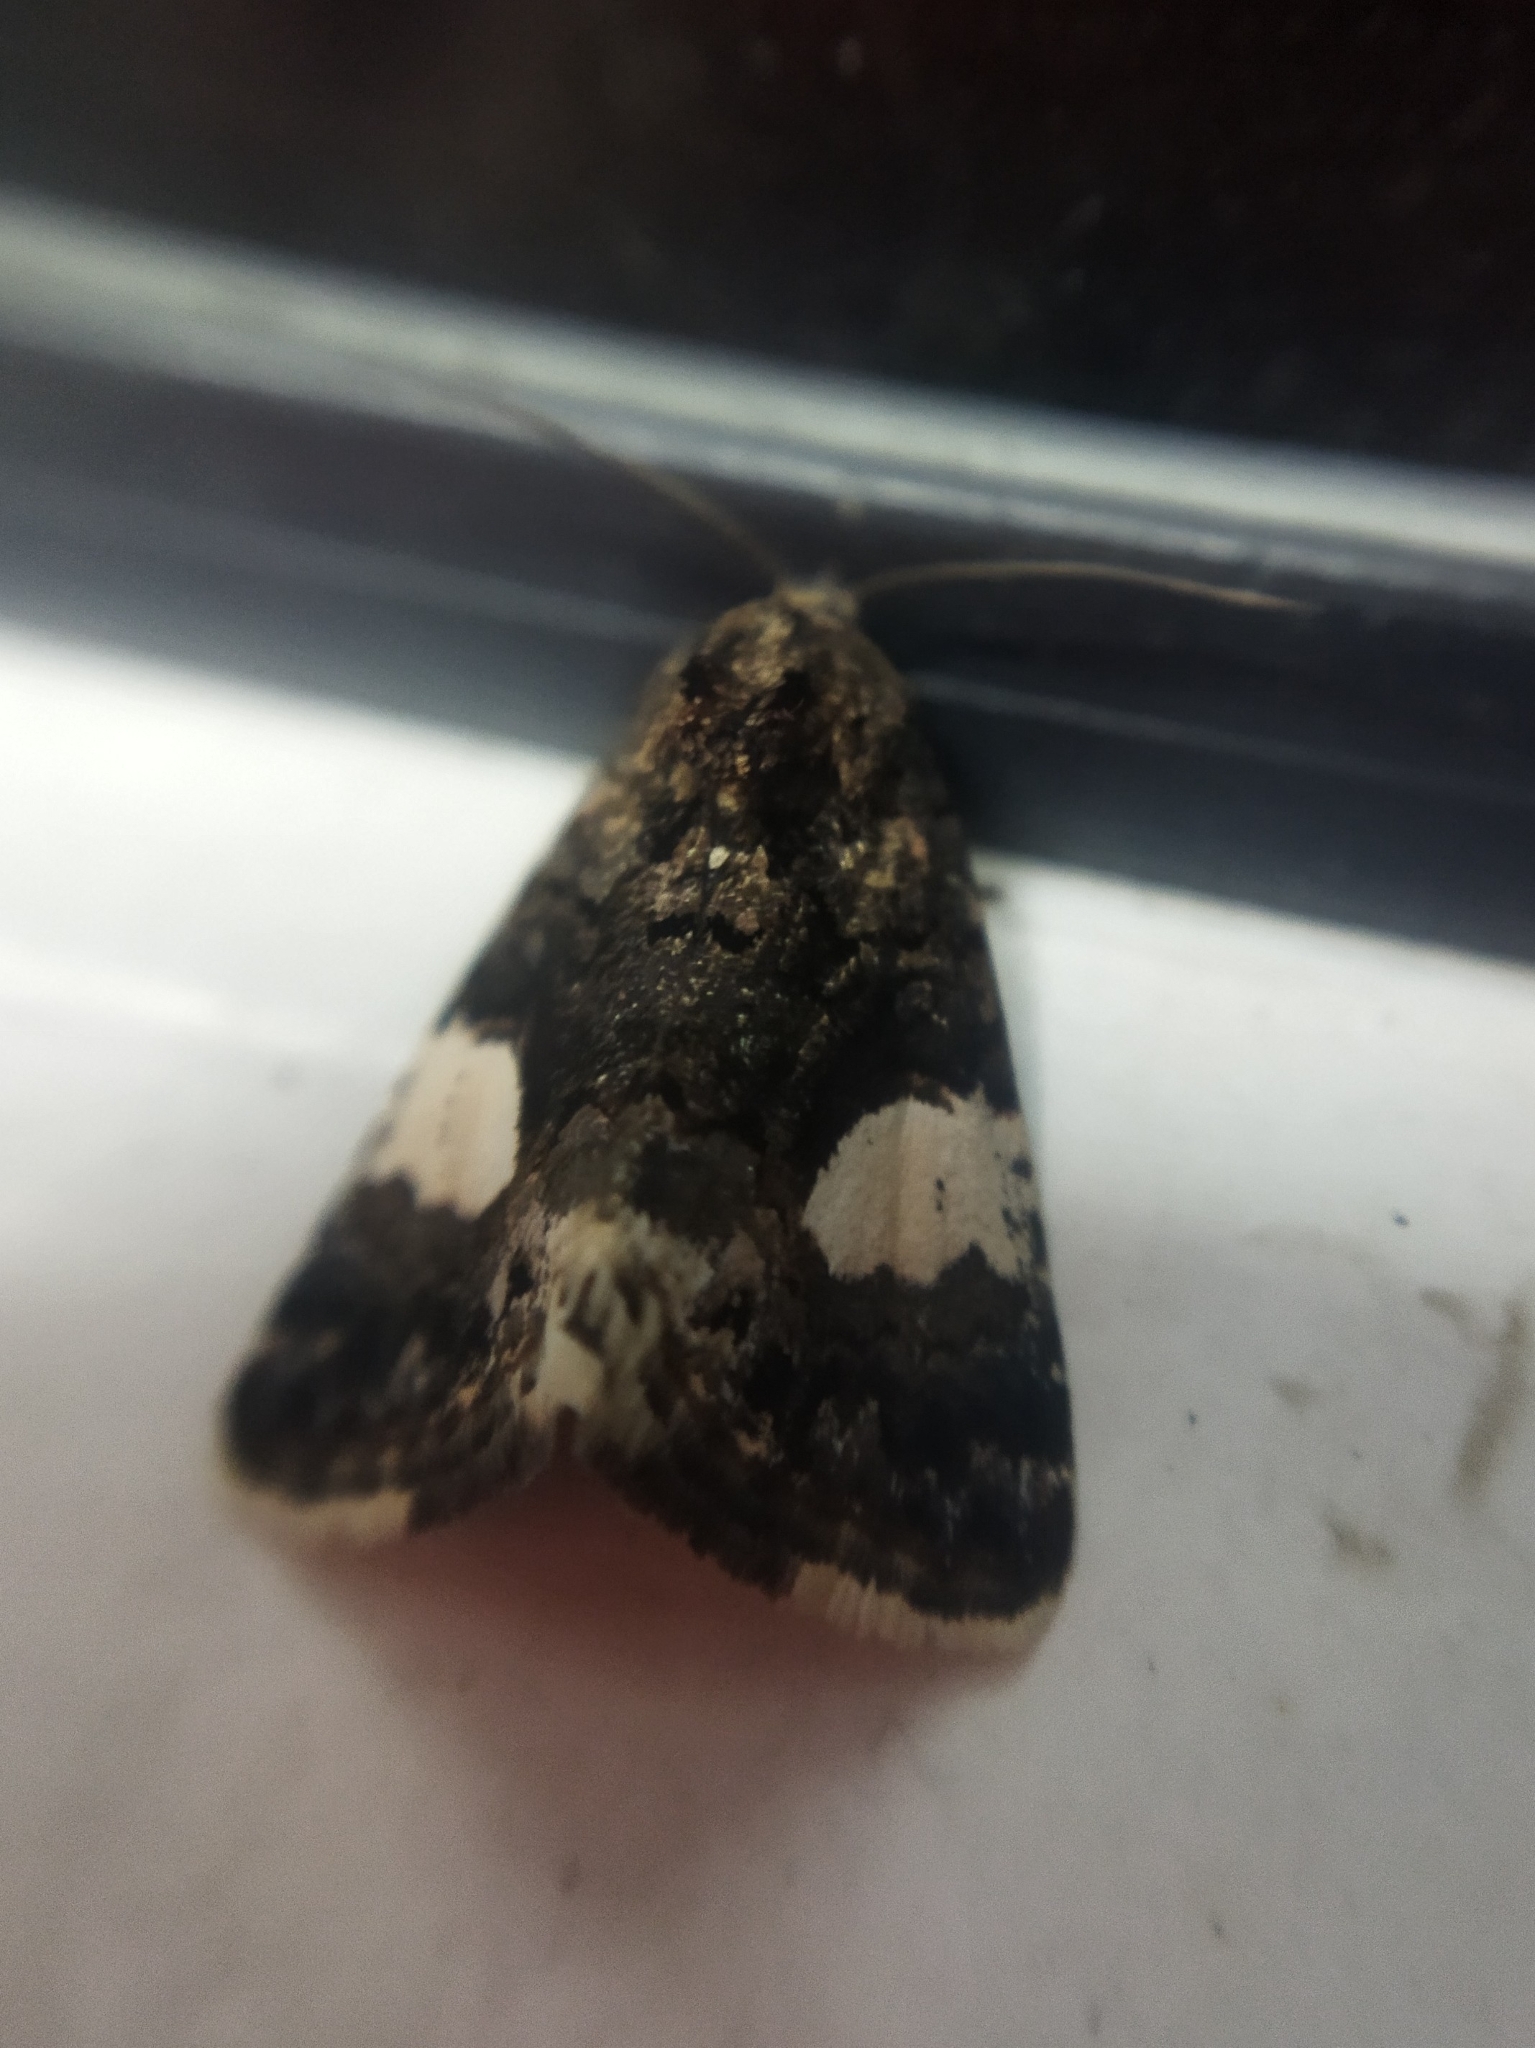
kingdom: Animalia
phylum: Arthropoda
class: Insecta
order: Lepidoptera
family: Erebidae
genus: Tyta
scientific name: Tyta luctuosa
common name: Four-spotted
